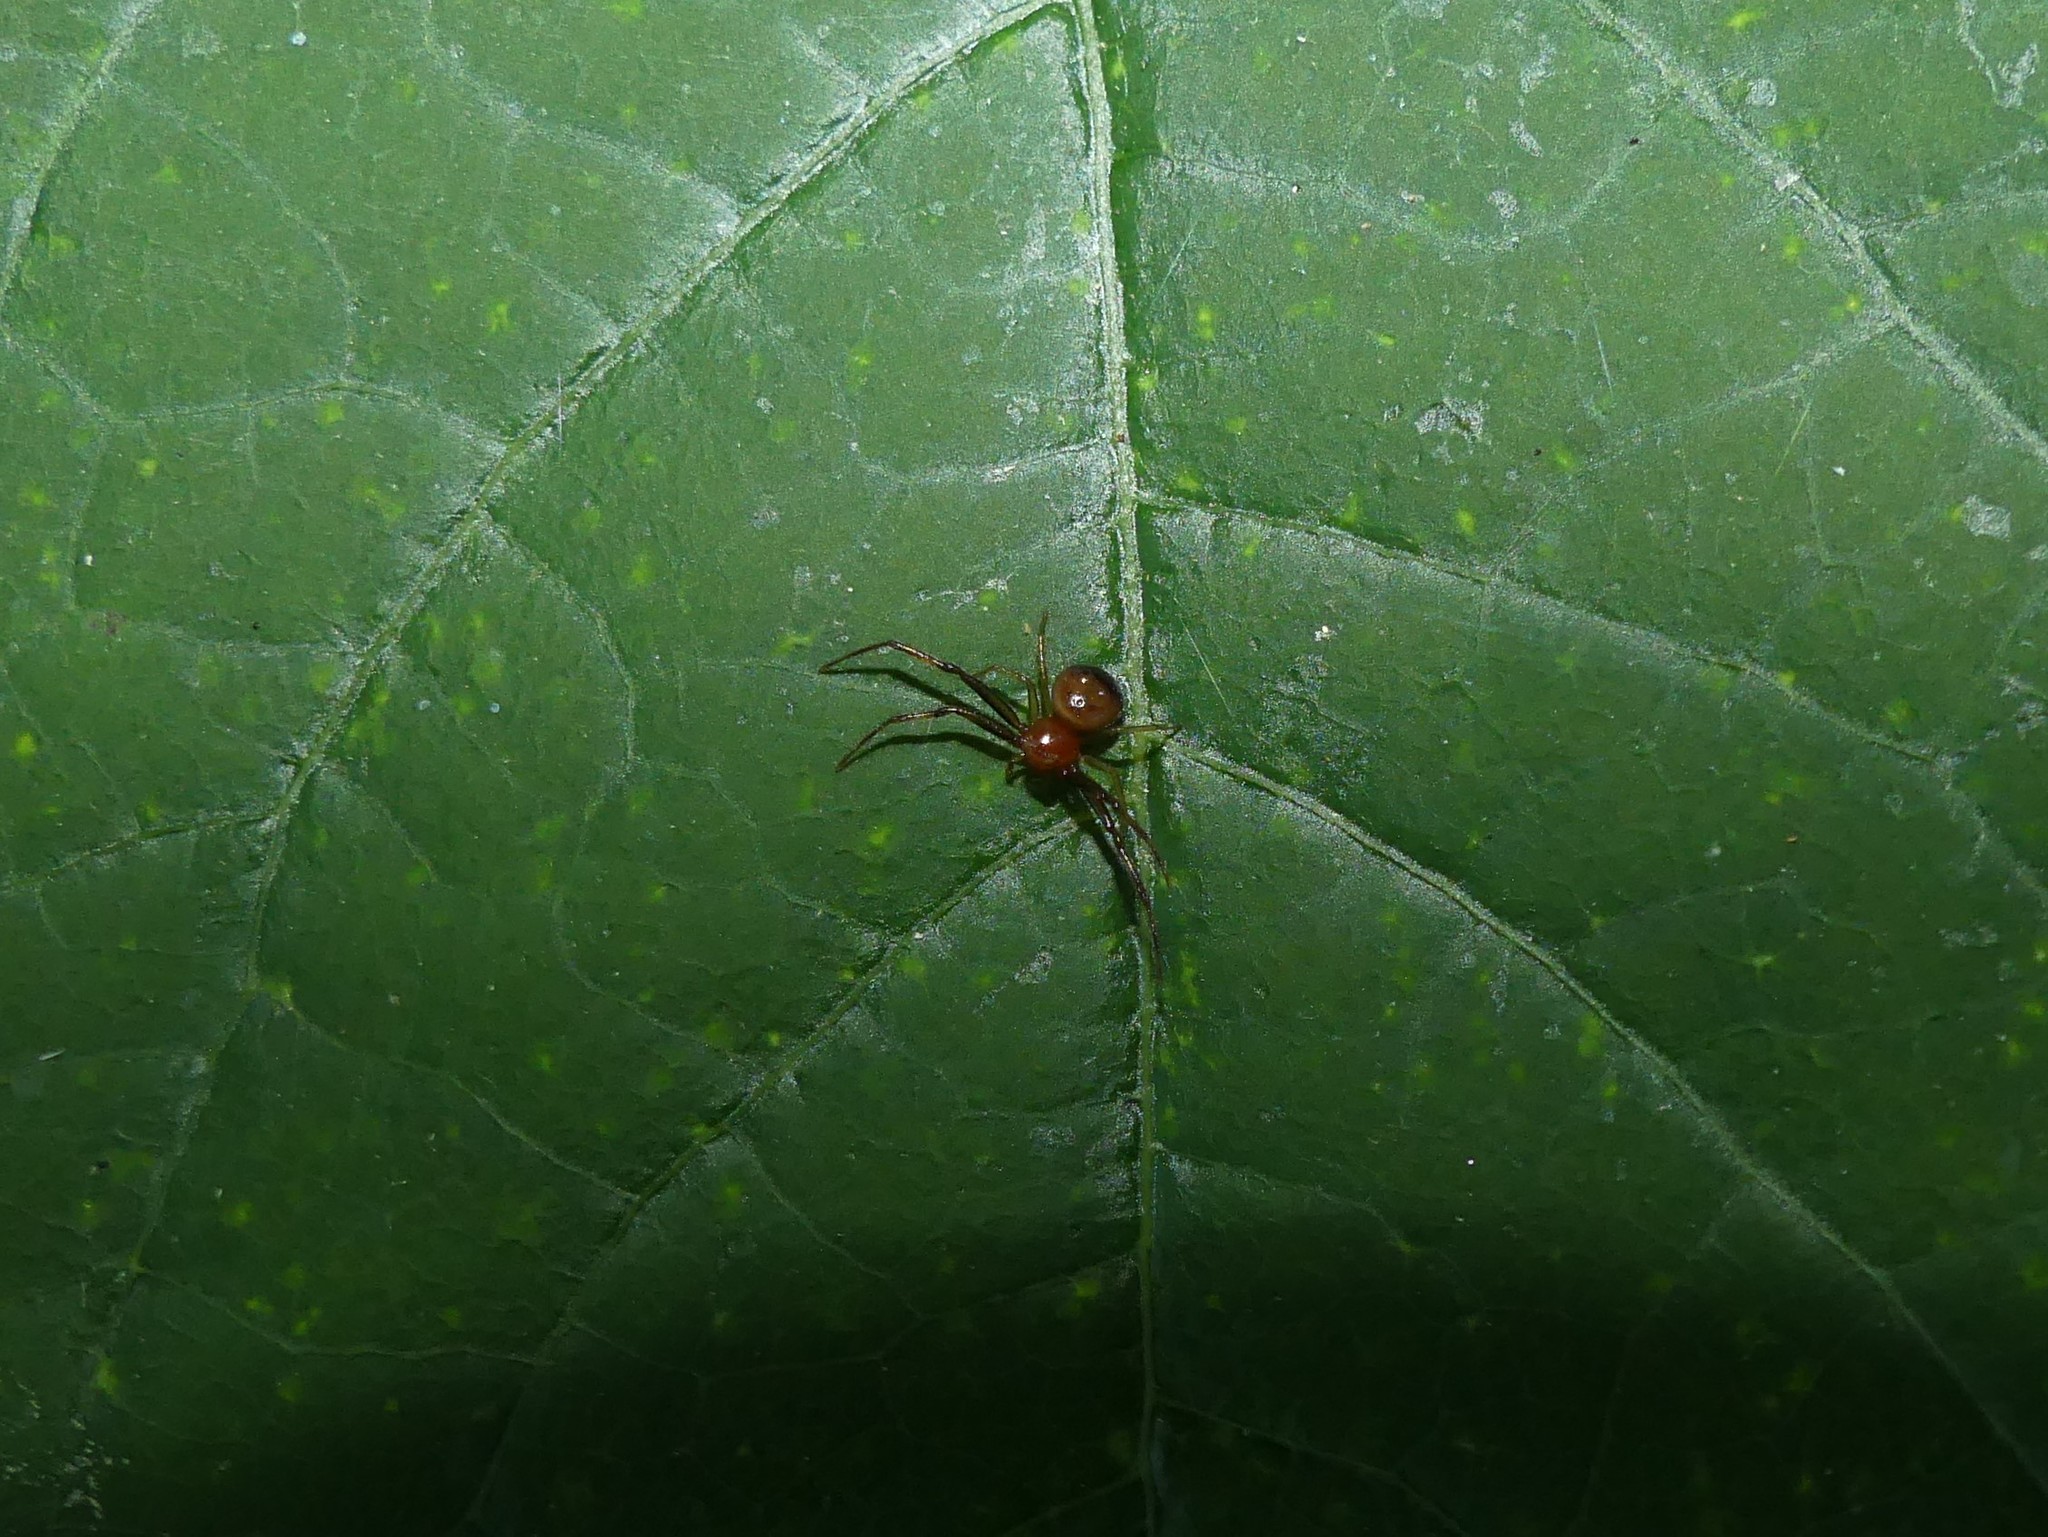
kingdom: Animalia
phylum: Arthropoda
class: Arachnida
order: Araneae
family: Thomisidae
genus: Synema
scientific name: Synema parvulum
